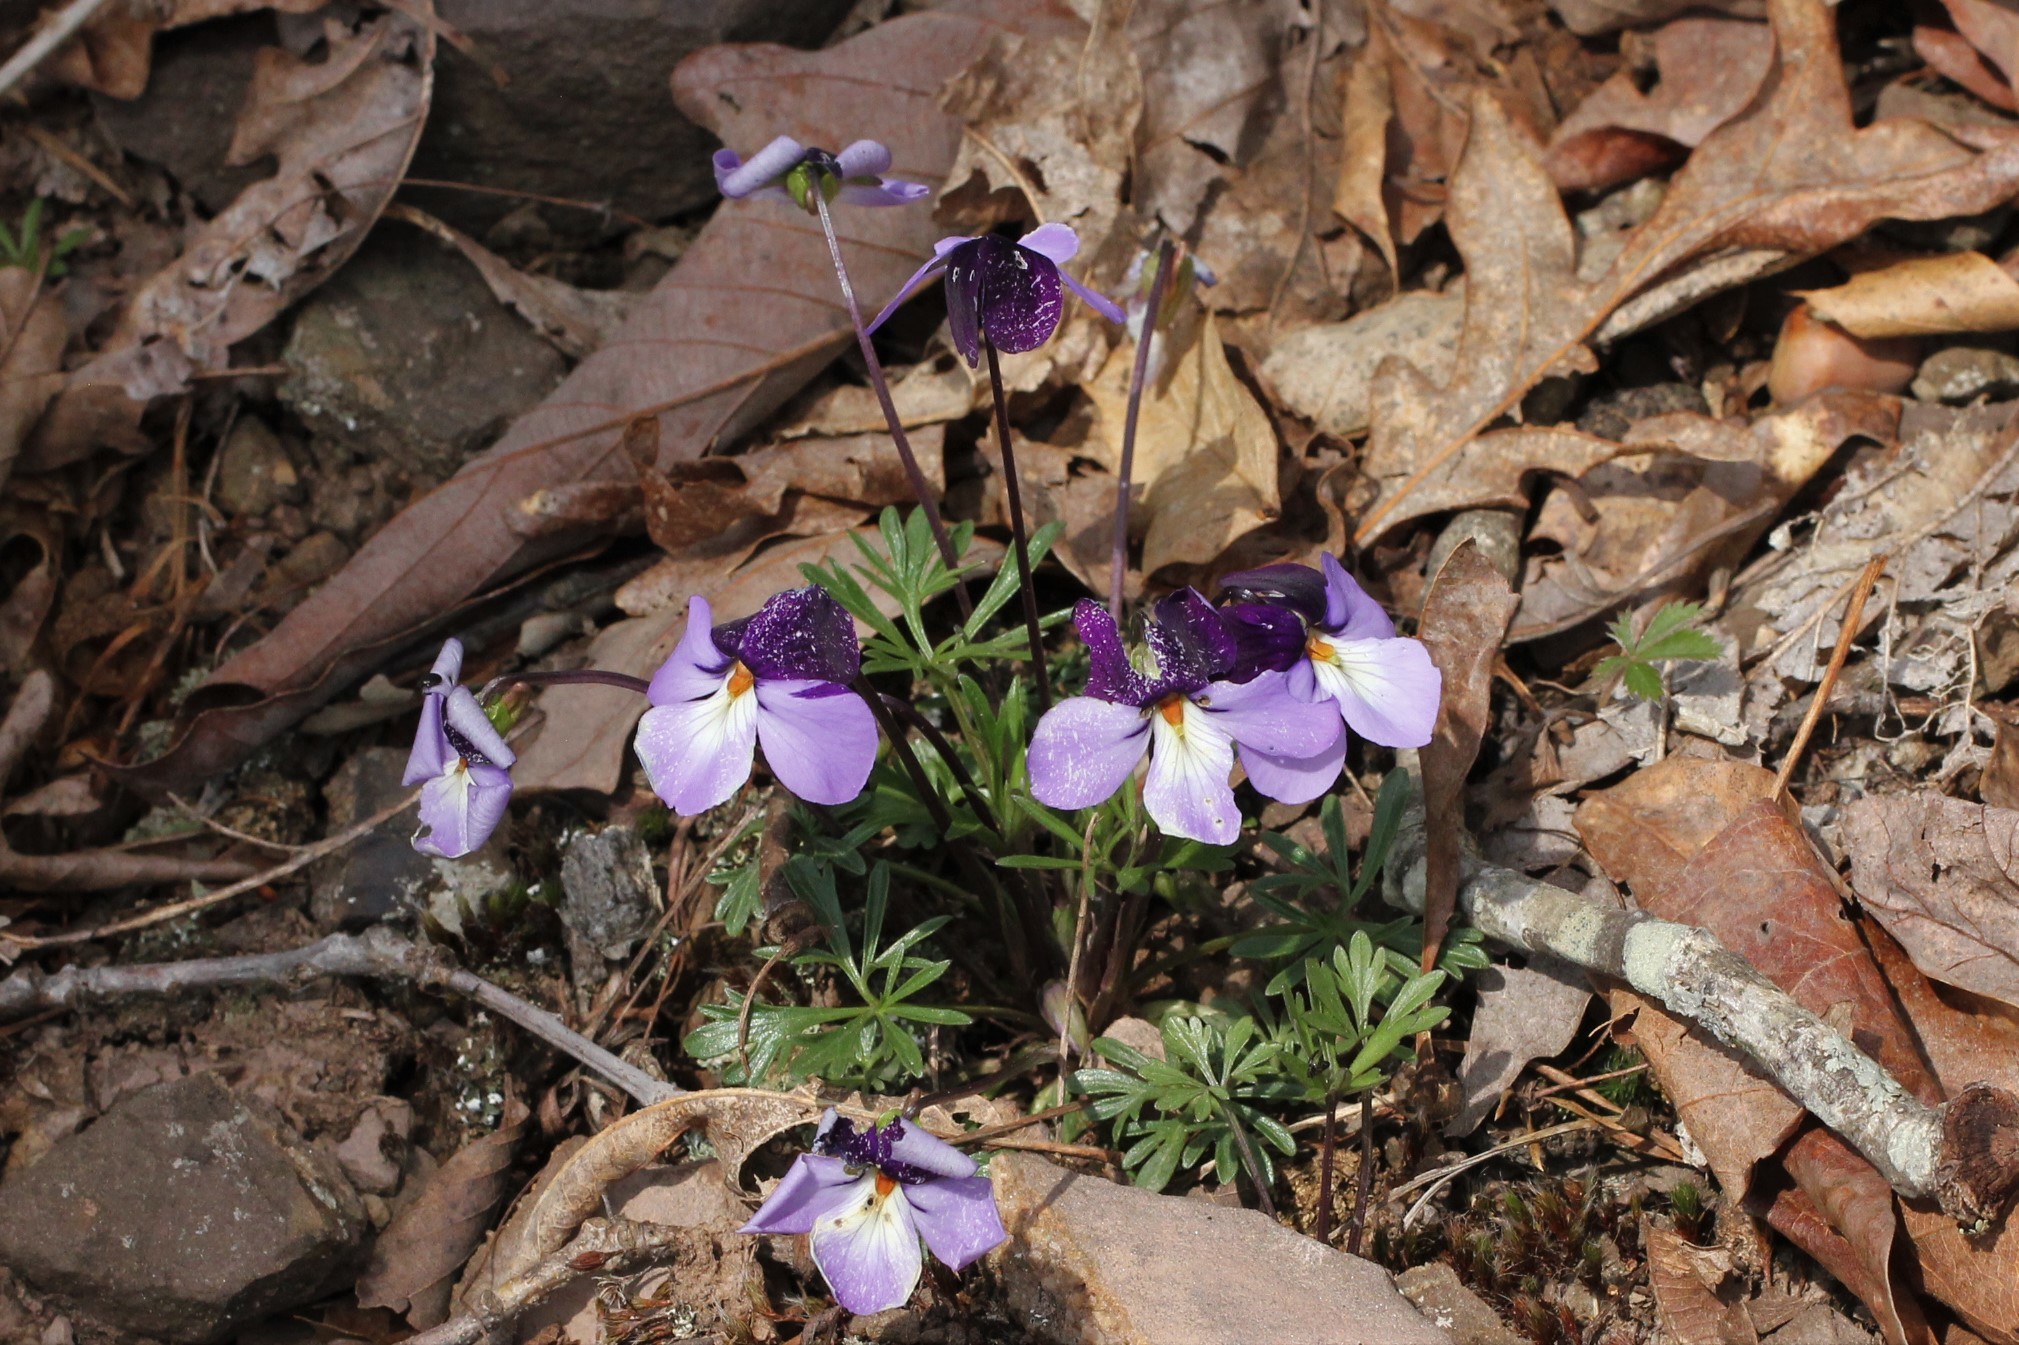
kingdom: Plantae
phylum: Tracheophyta
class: Magnoliopsida
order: Malpighiales
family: Violaceae
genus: Viola
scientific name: Viola pedata
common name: Pansy violet
